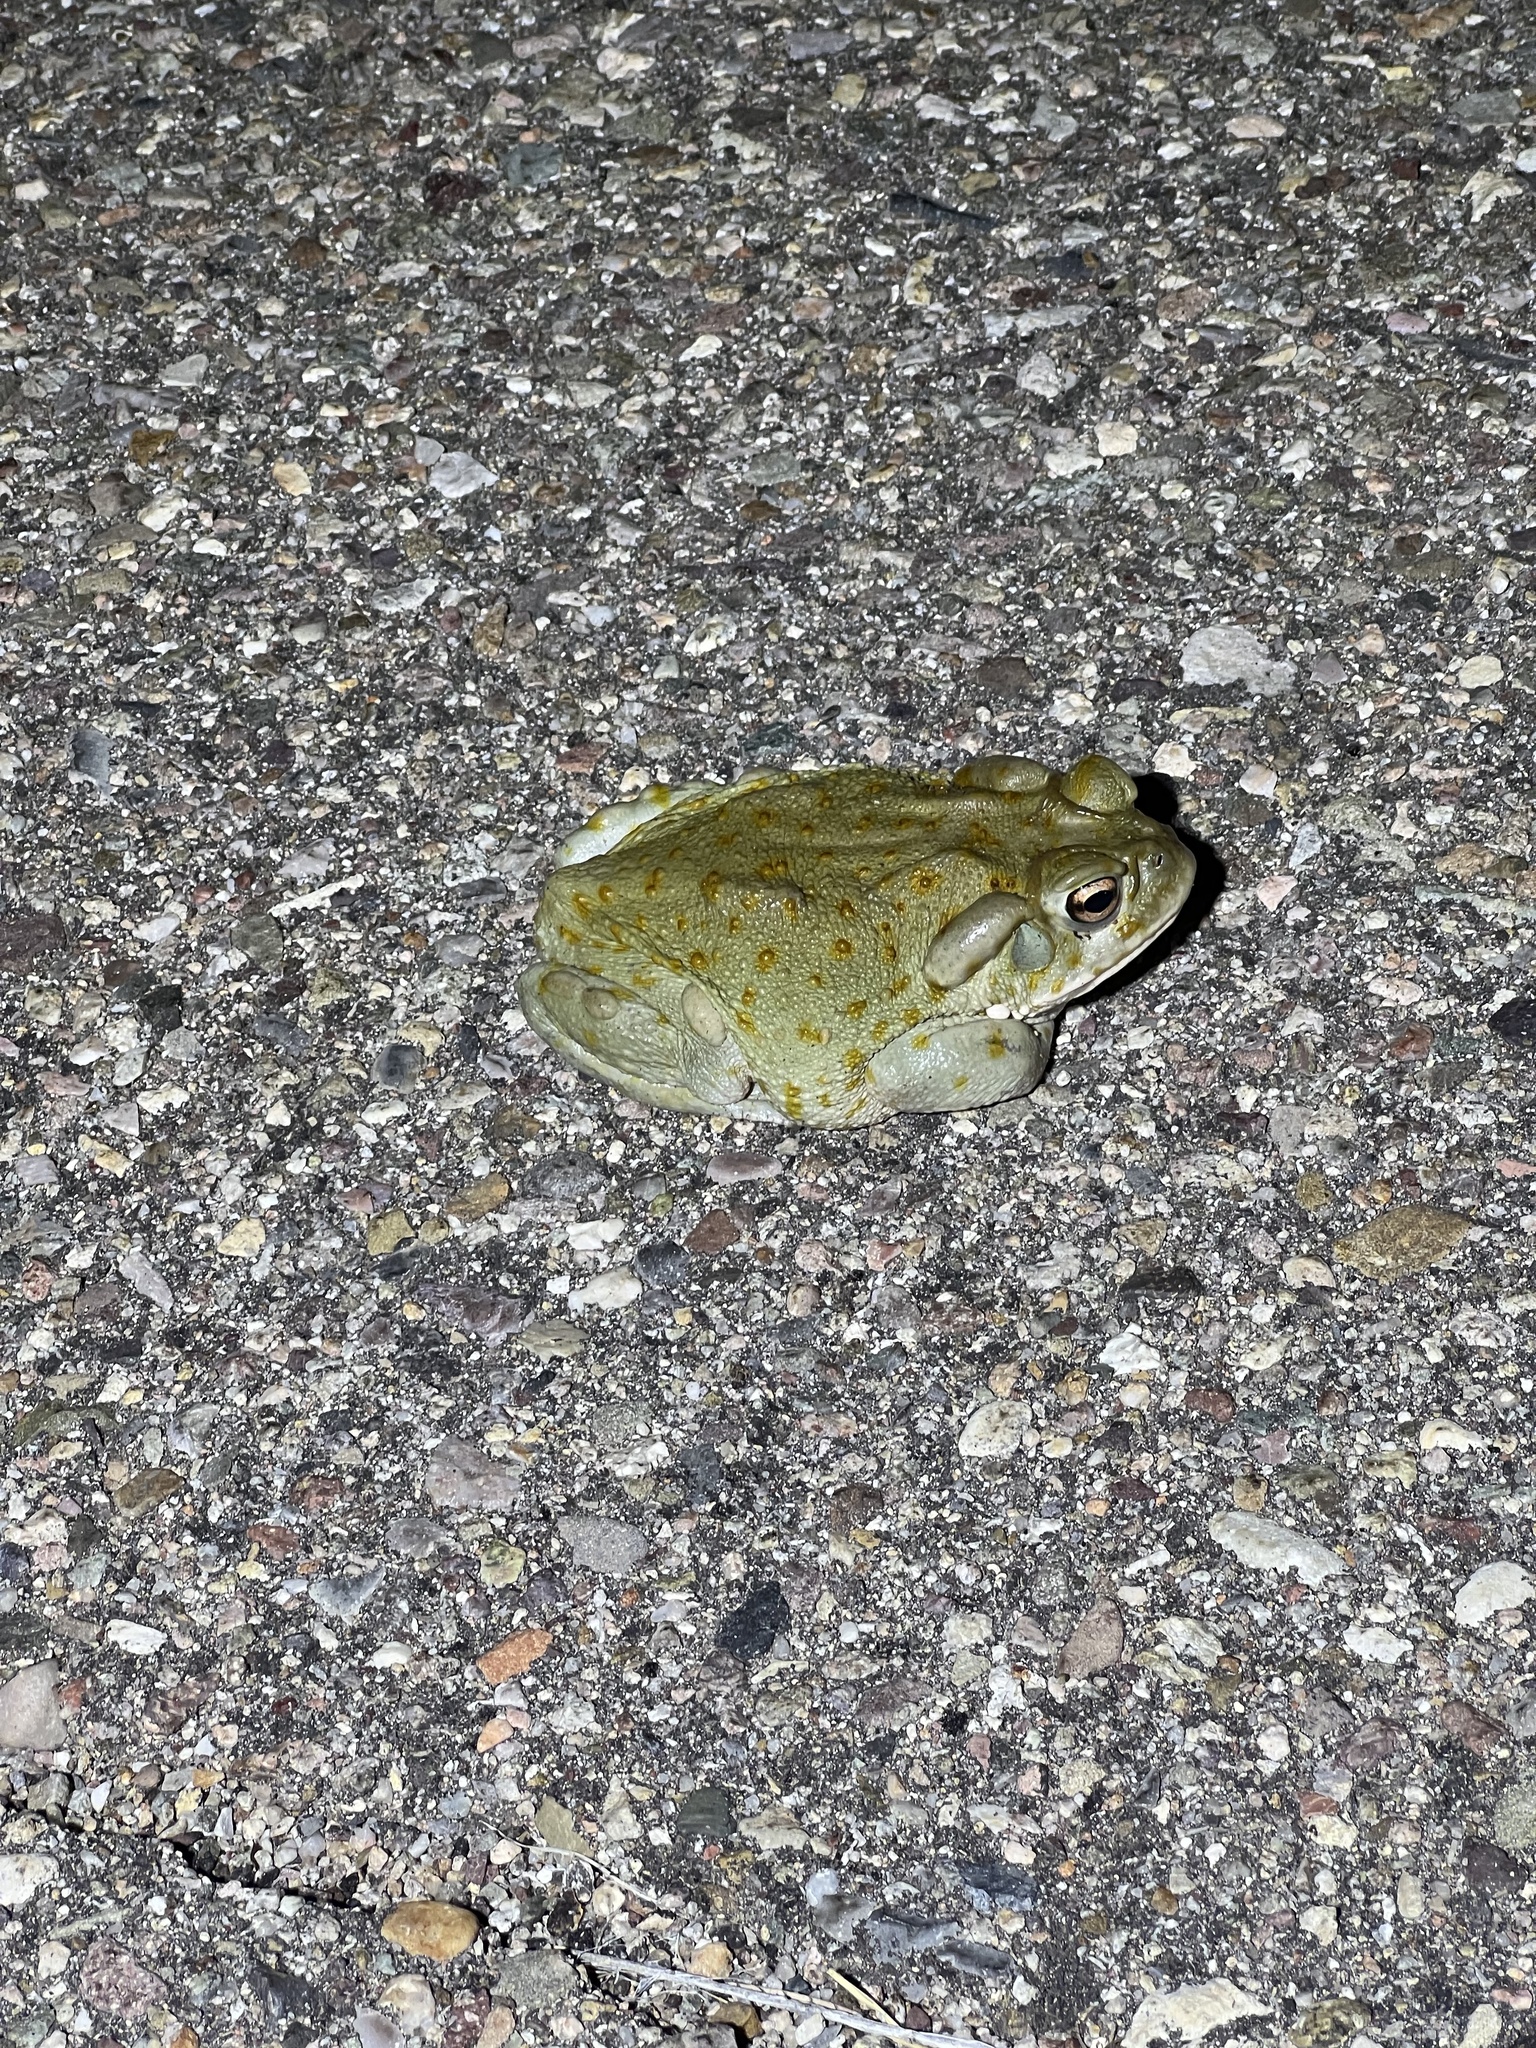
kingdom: Animalia
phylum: Chordata
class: Amphibia
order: Anura
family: Bufonidae
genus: Incilius
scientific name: Incilius alvarius
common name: Sonoran desert toad
